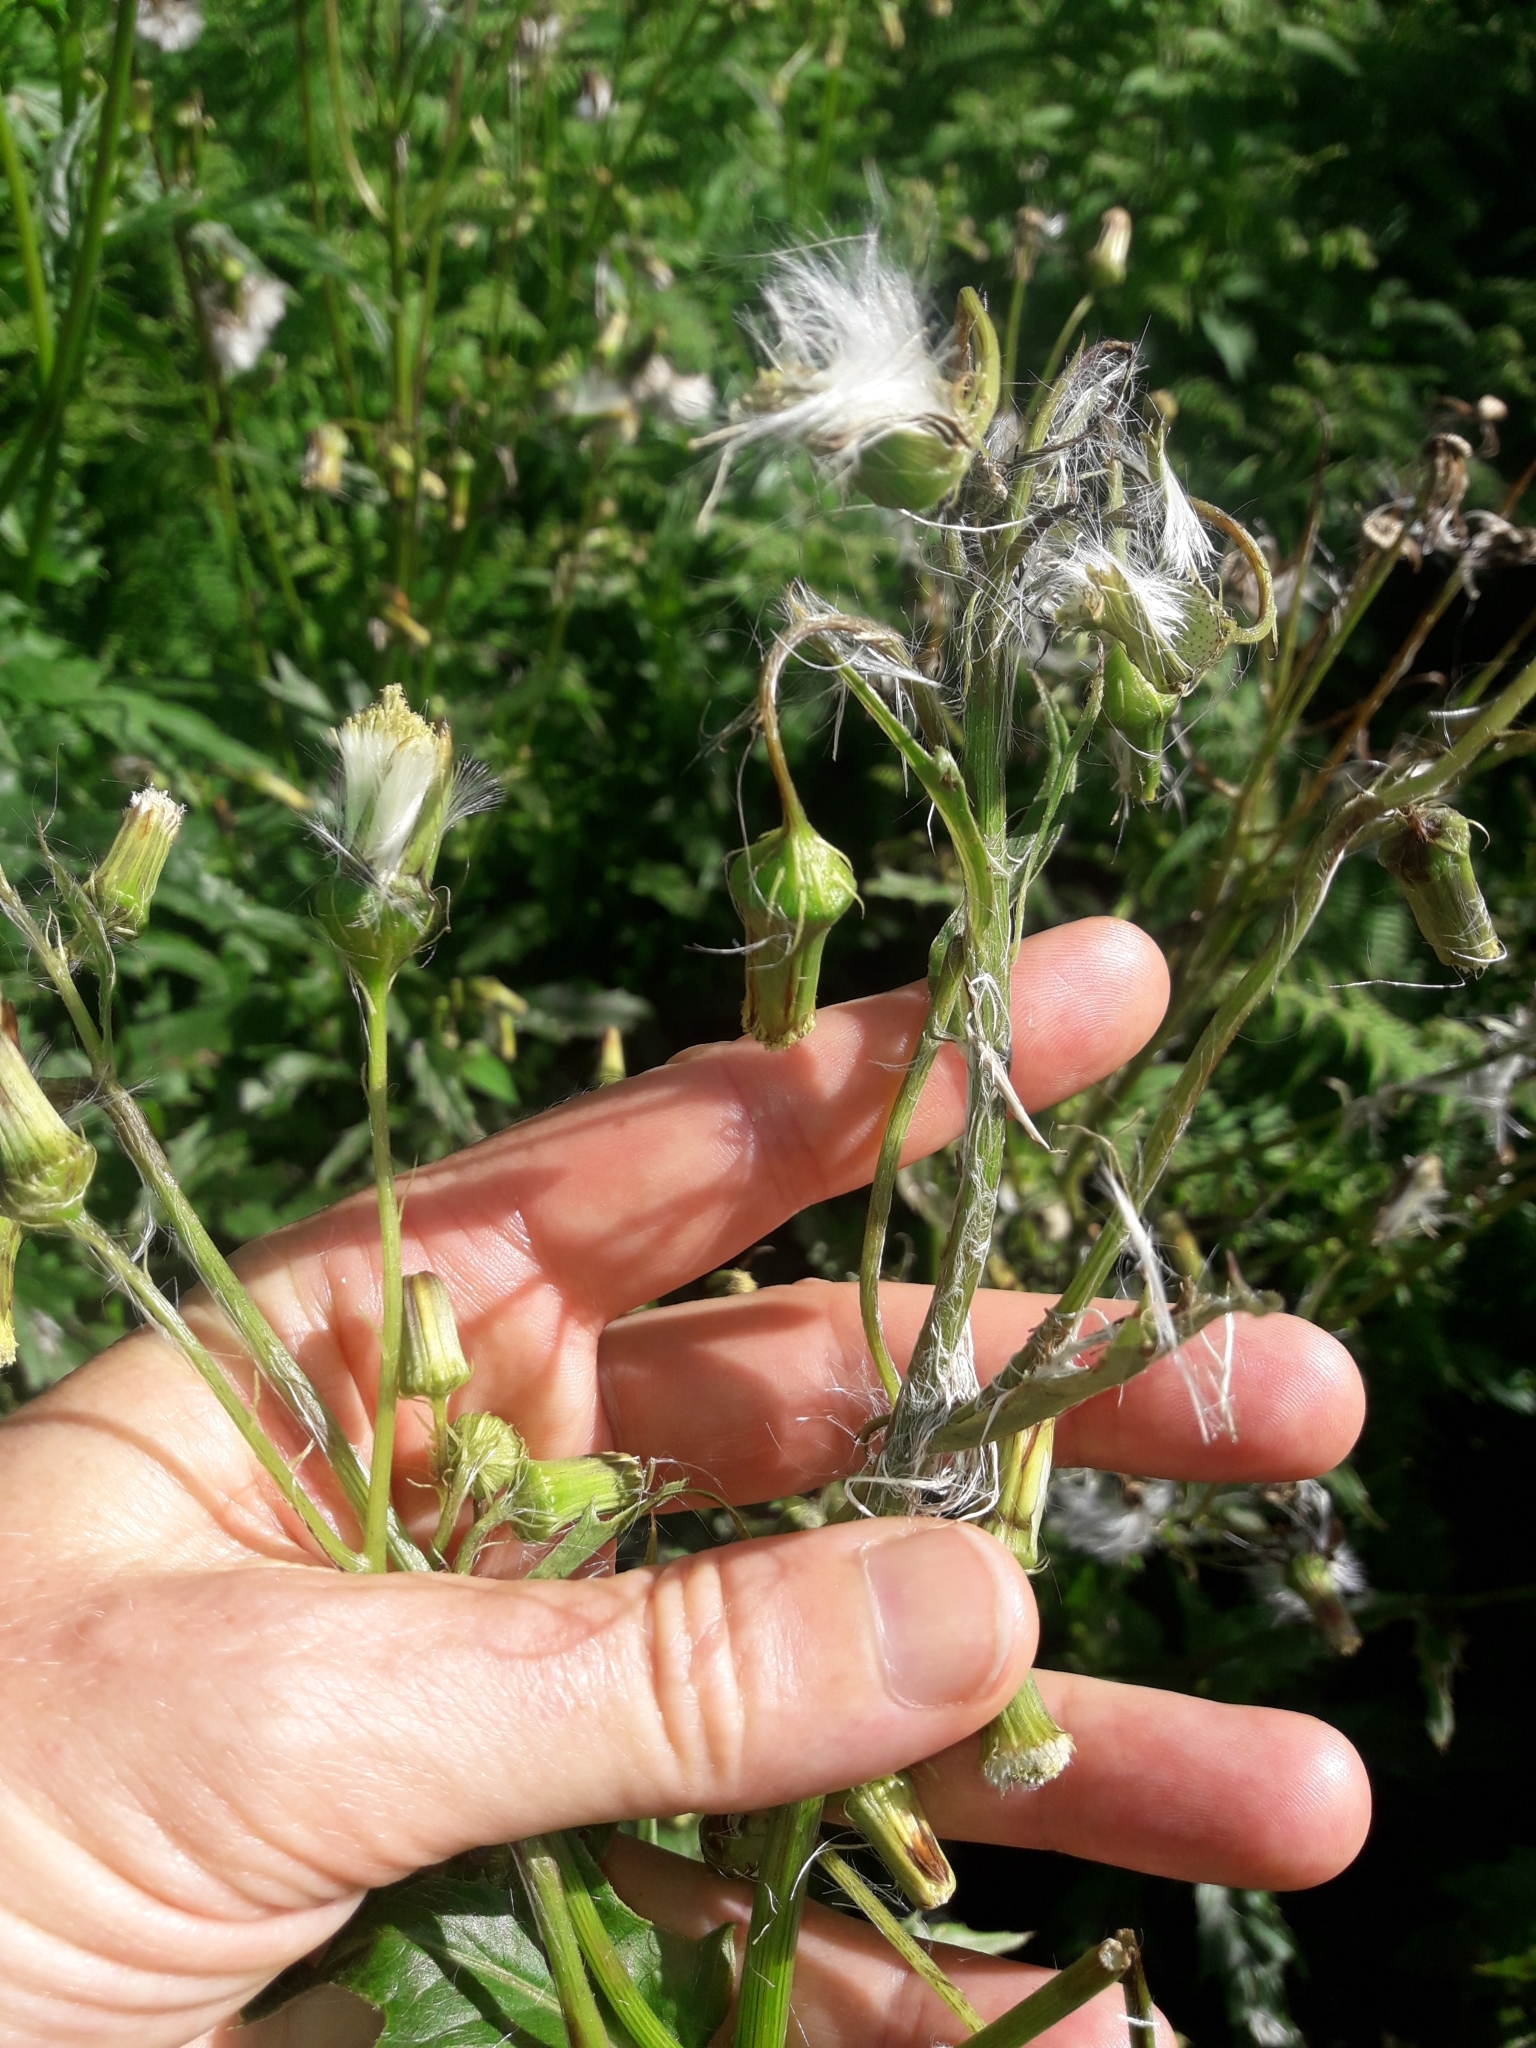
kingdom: Plantae
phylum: Tracheophyta
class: Magnoliopsida
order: Asterales
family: Asteraceae
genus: Erechtites
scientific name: Erechtites hieraciifolius
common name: American burnweed
